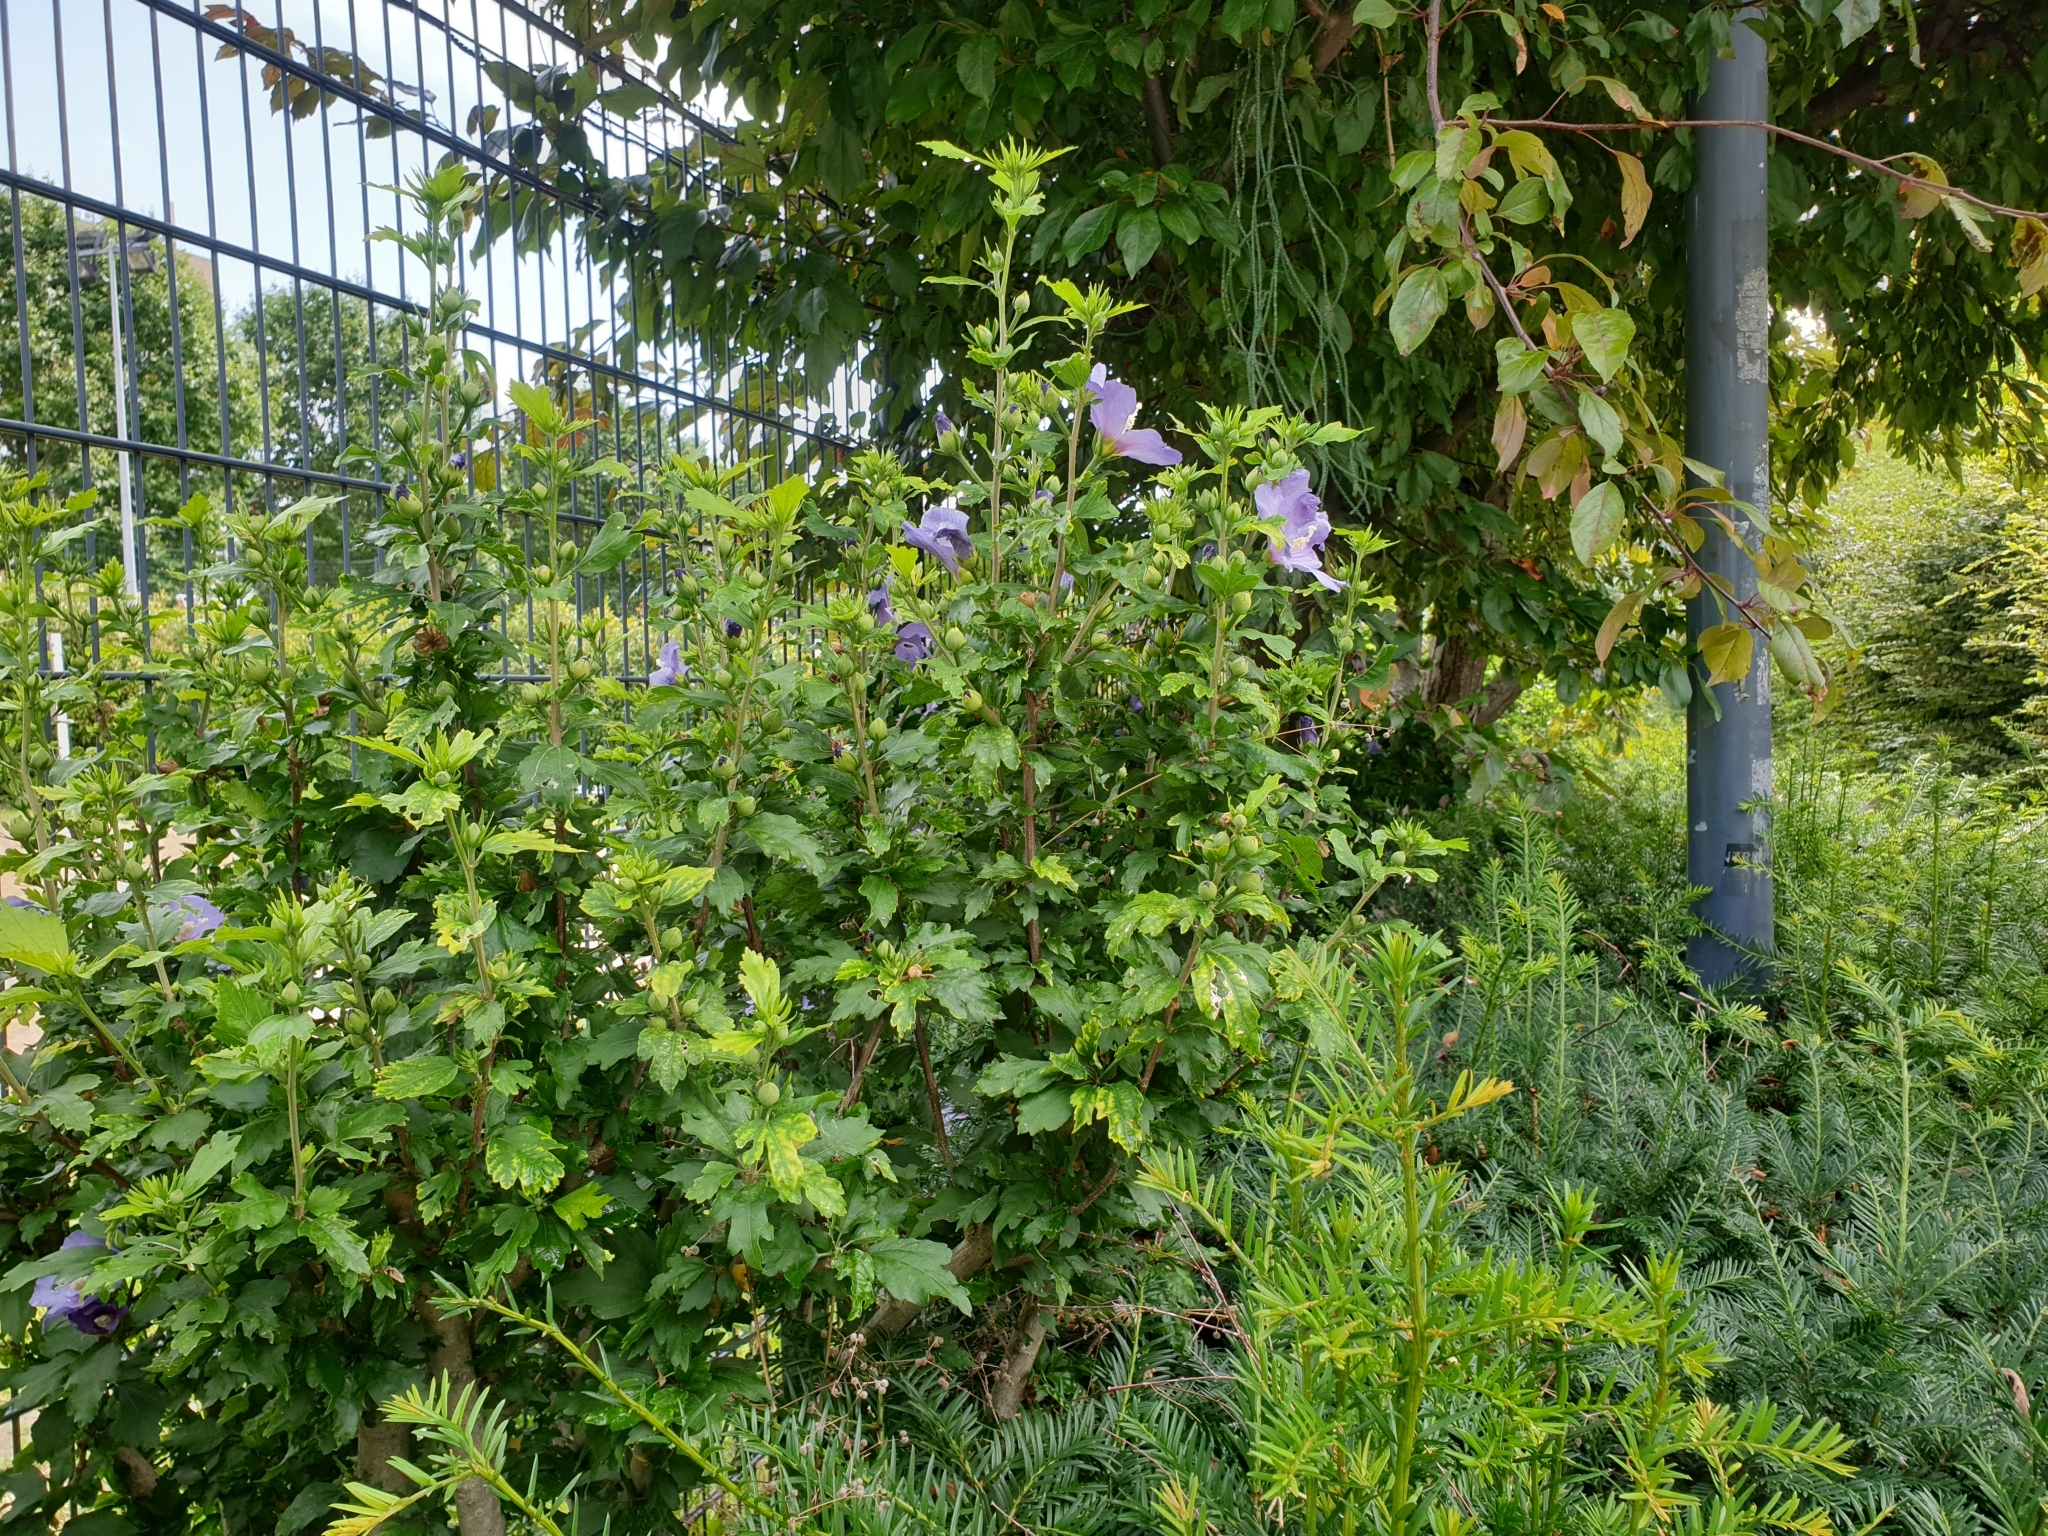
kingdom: Plantae
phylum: Tracheophyta
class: Magnoliopsida
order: Malvales
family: Malvaceae
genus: Hibiscus
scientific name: Hibiscus syriacus
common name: Syrian ketmia
